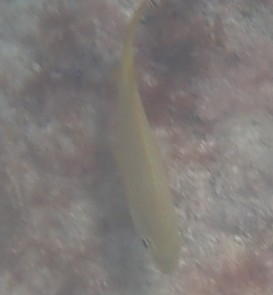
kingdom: Animalia
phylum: Chordata
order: Perciformes
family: Haemulidae
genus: Haemulon
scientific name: Haemulon flavolineatum
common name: French grunt
